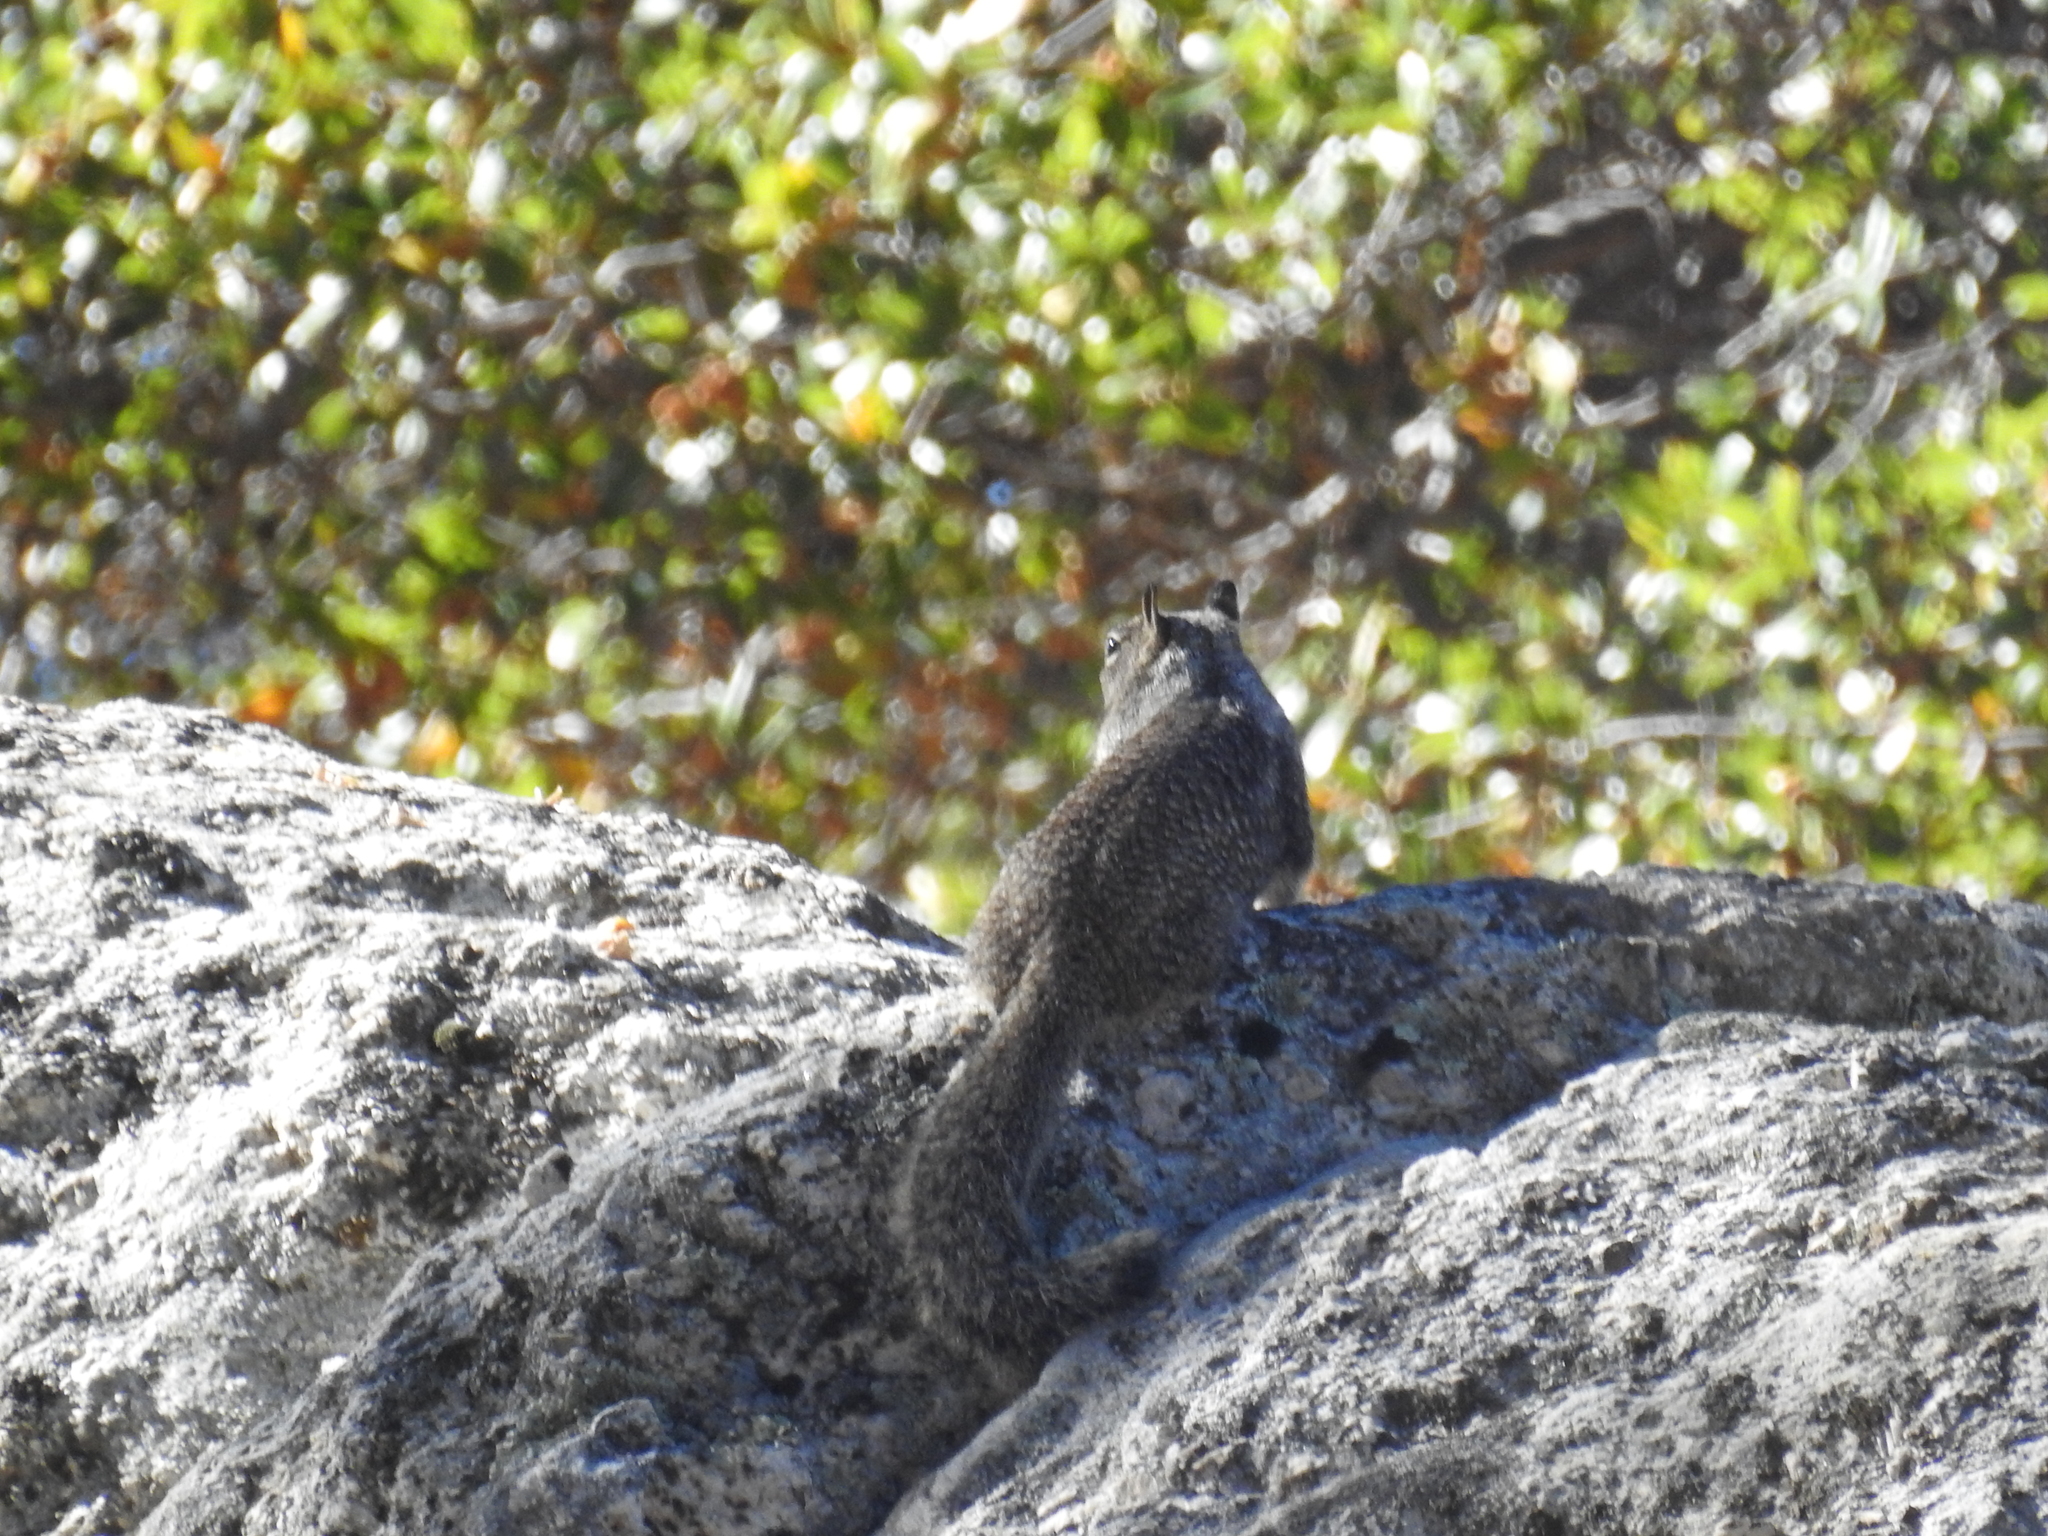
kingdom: Animalia
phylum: Chordata
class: Mammalia
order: Rodentia
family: Sciuridae
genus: Otospermophilus
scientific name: Otospermophilus beecheyi
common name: California ground squirrel
